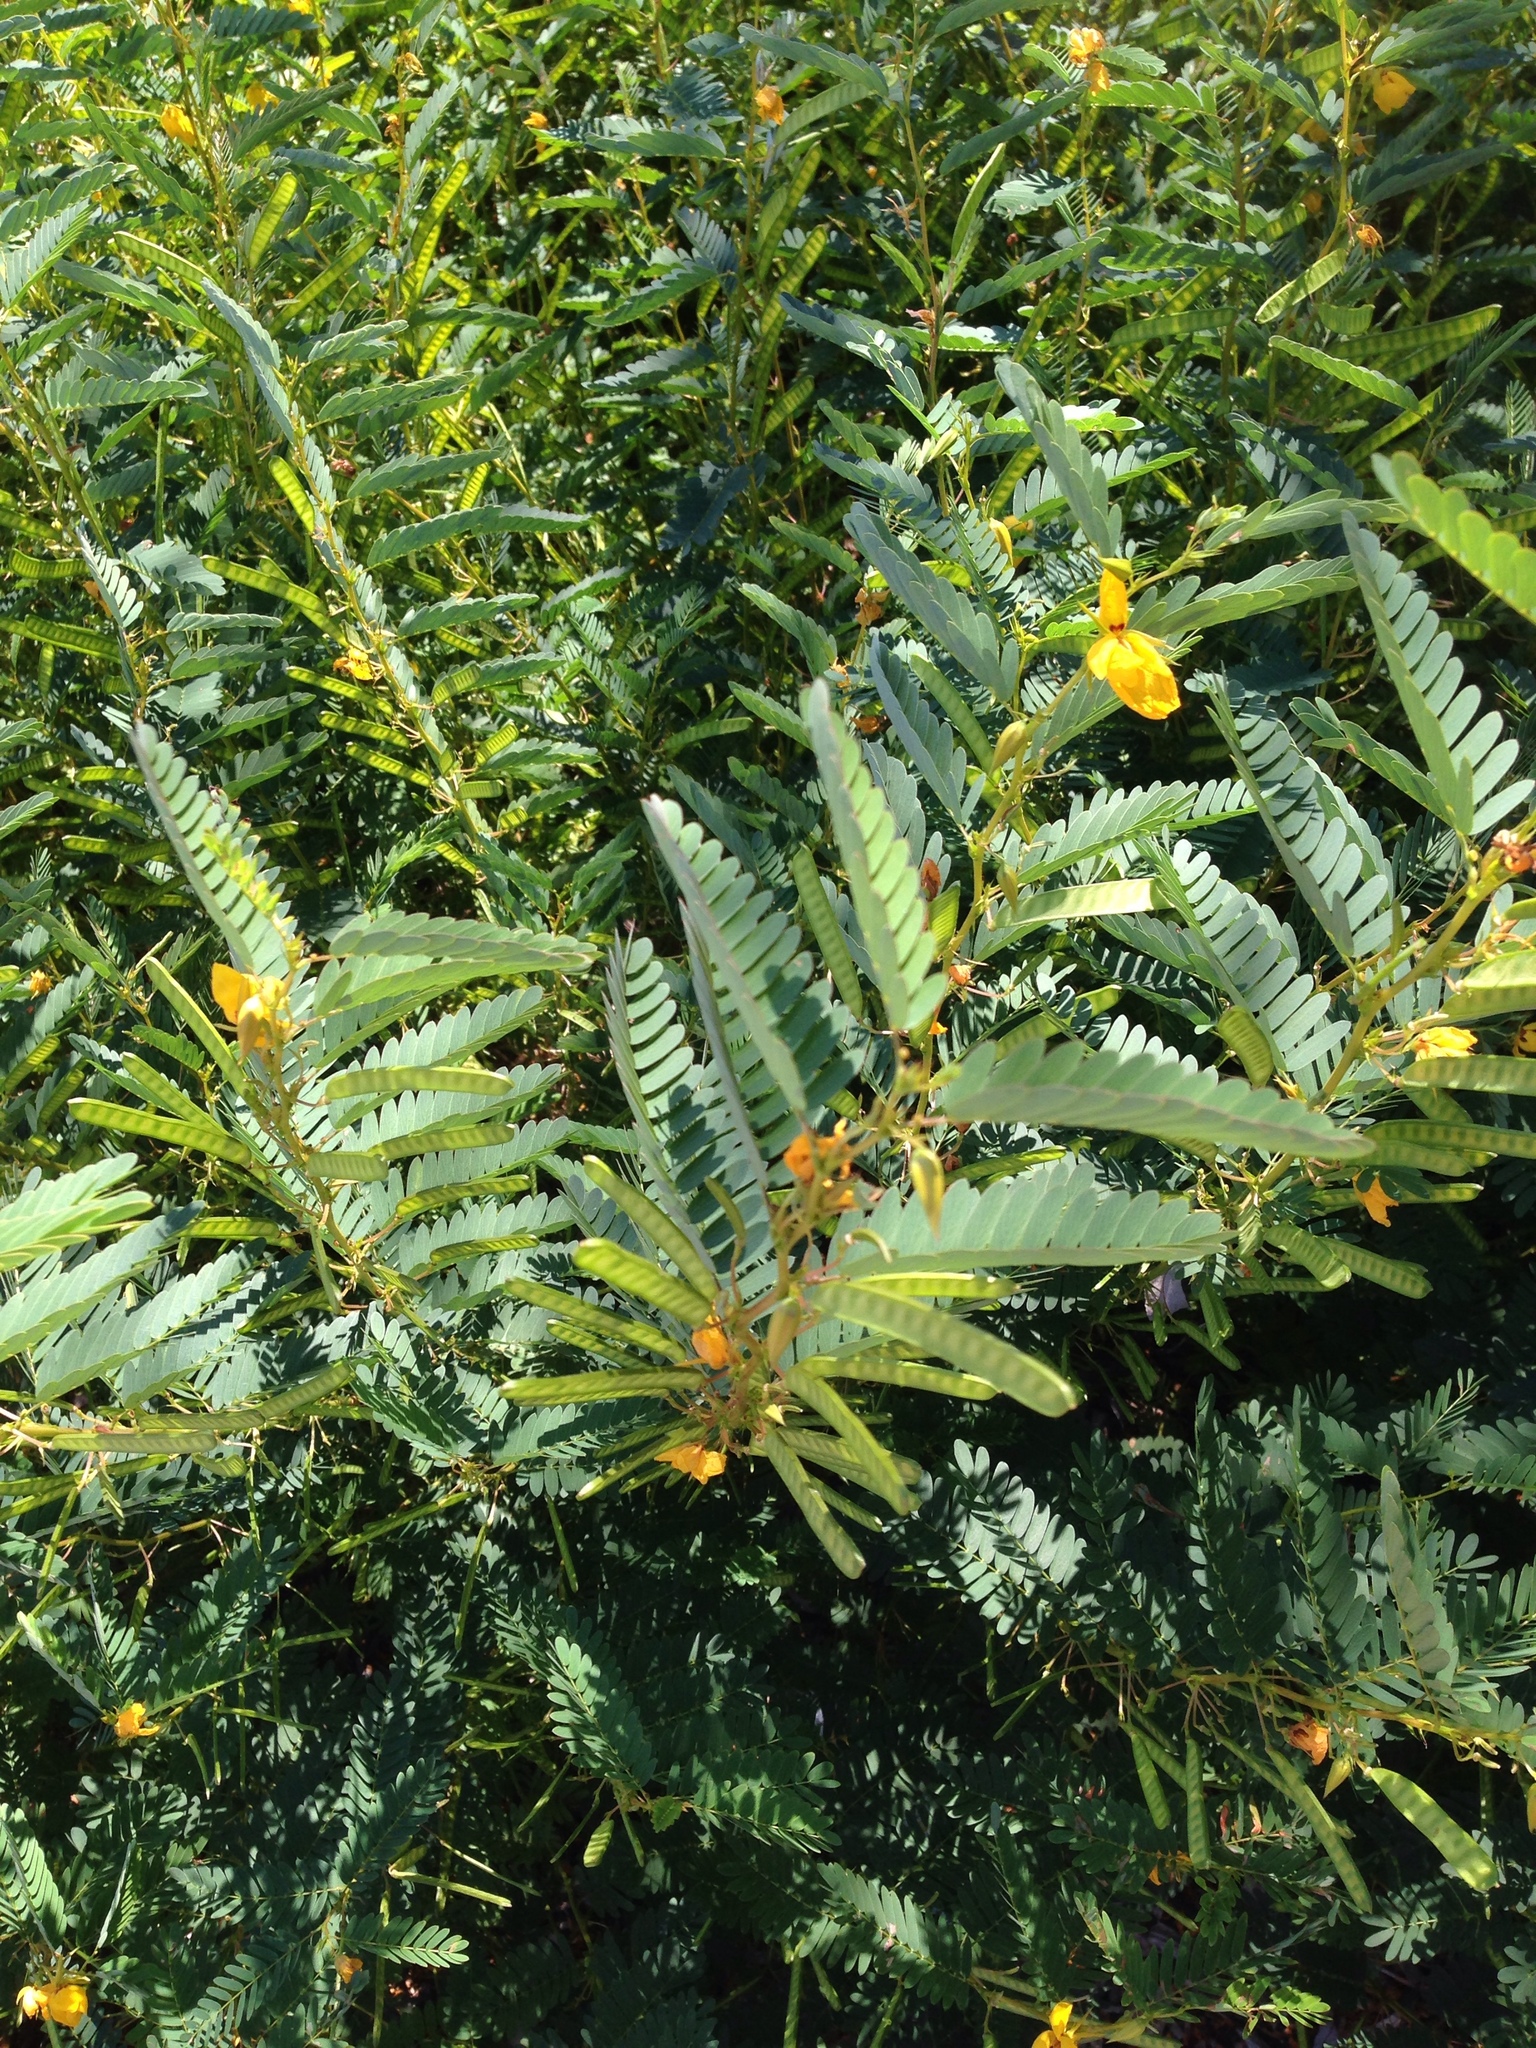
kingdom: Plantae
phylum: Tracheophyta
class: Magnoliopsida
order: Fabales
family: Fabaceae
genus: Chamaecrista
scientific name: Chamaecrista fasciculata
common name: Golden cassia
